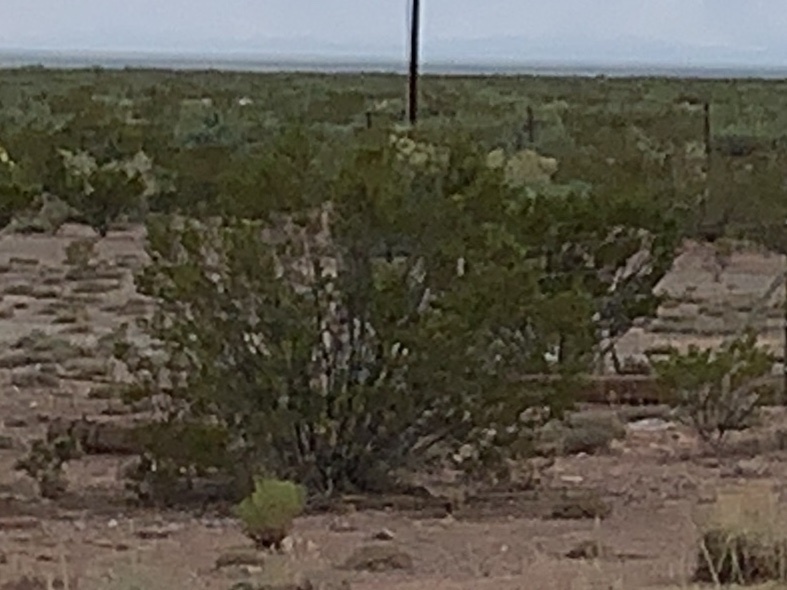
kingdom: Plantae
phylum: Tracheophyta
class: Magnoliopsida
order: Zygophyllales
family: Zygophyllaceae
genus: Larrea
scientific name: Larrea tridentata
